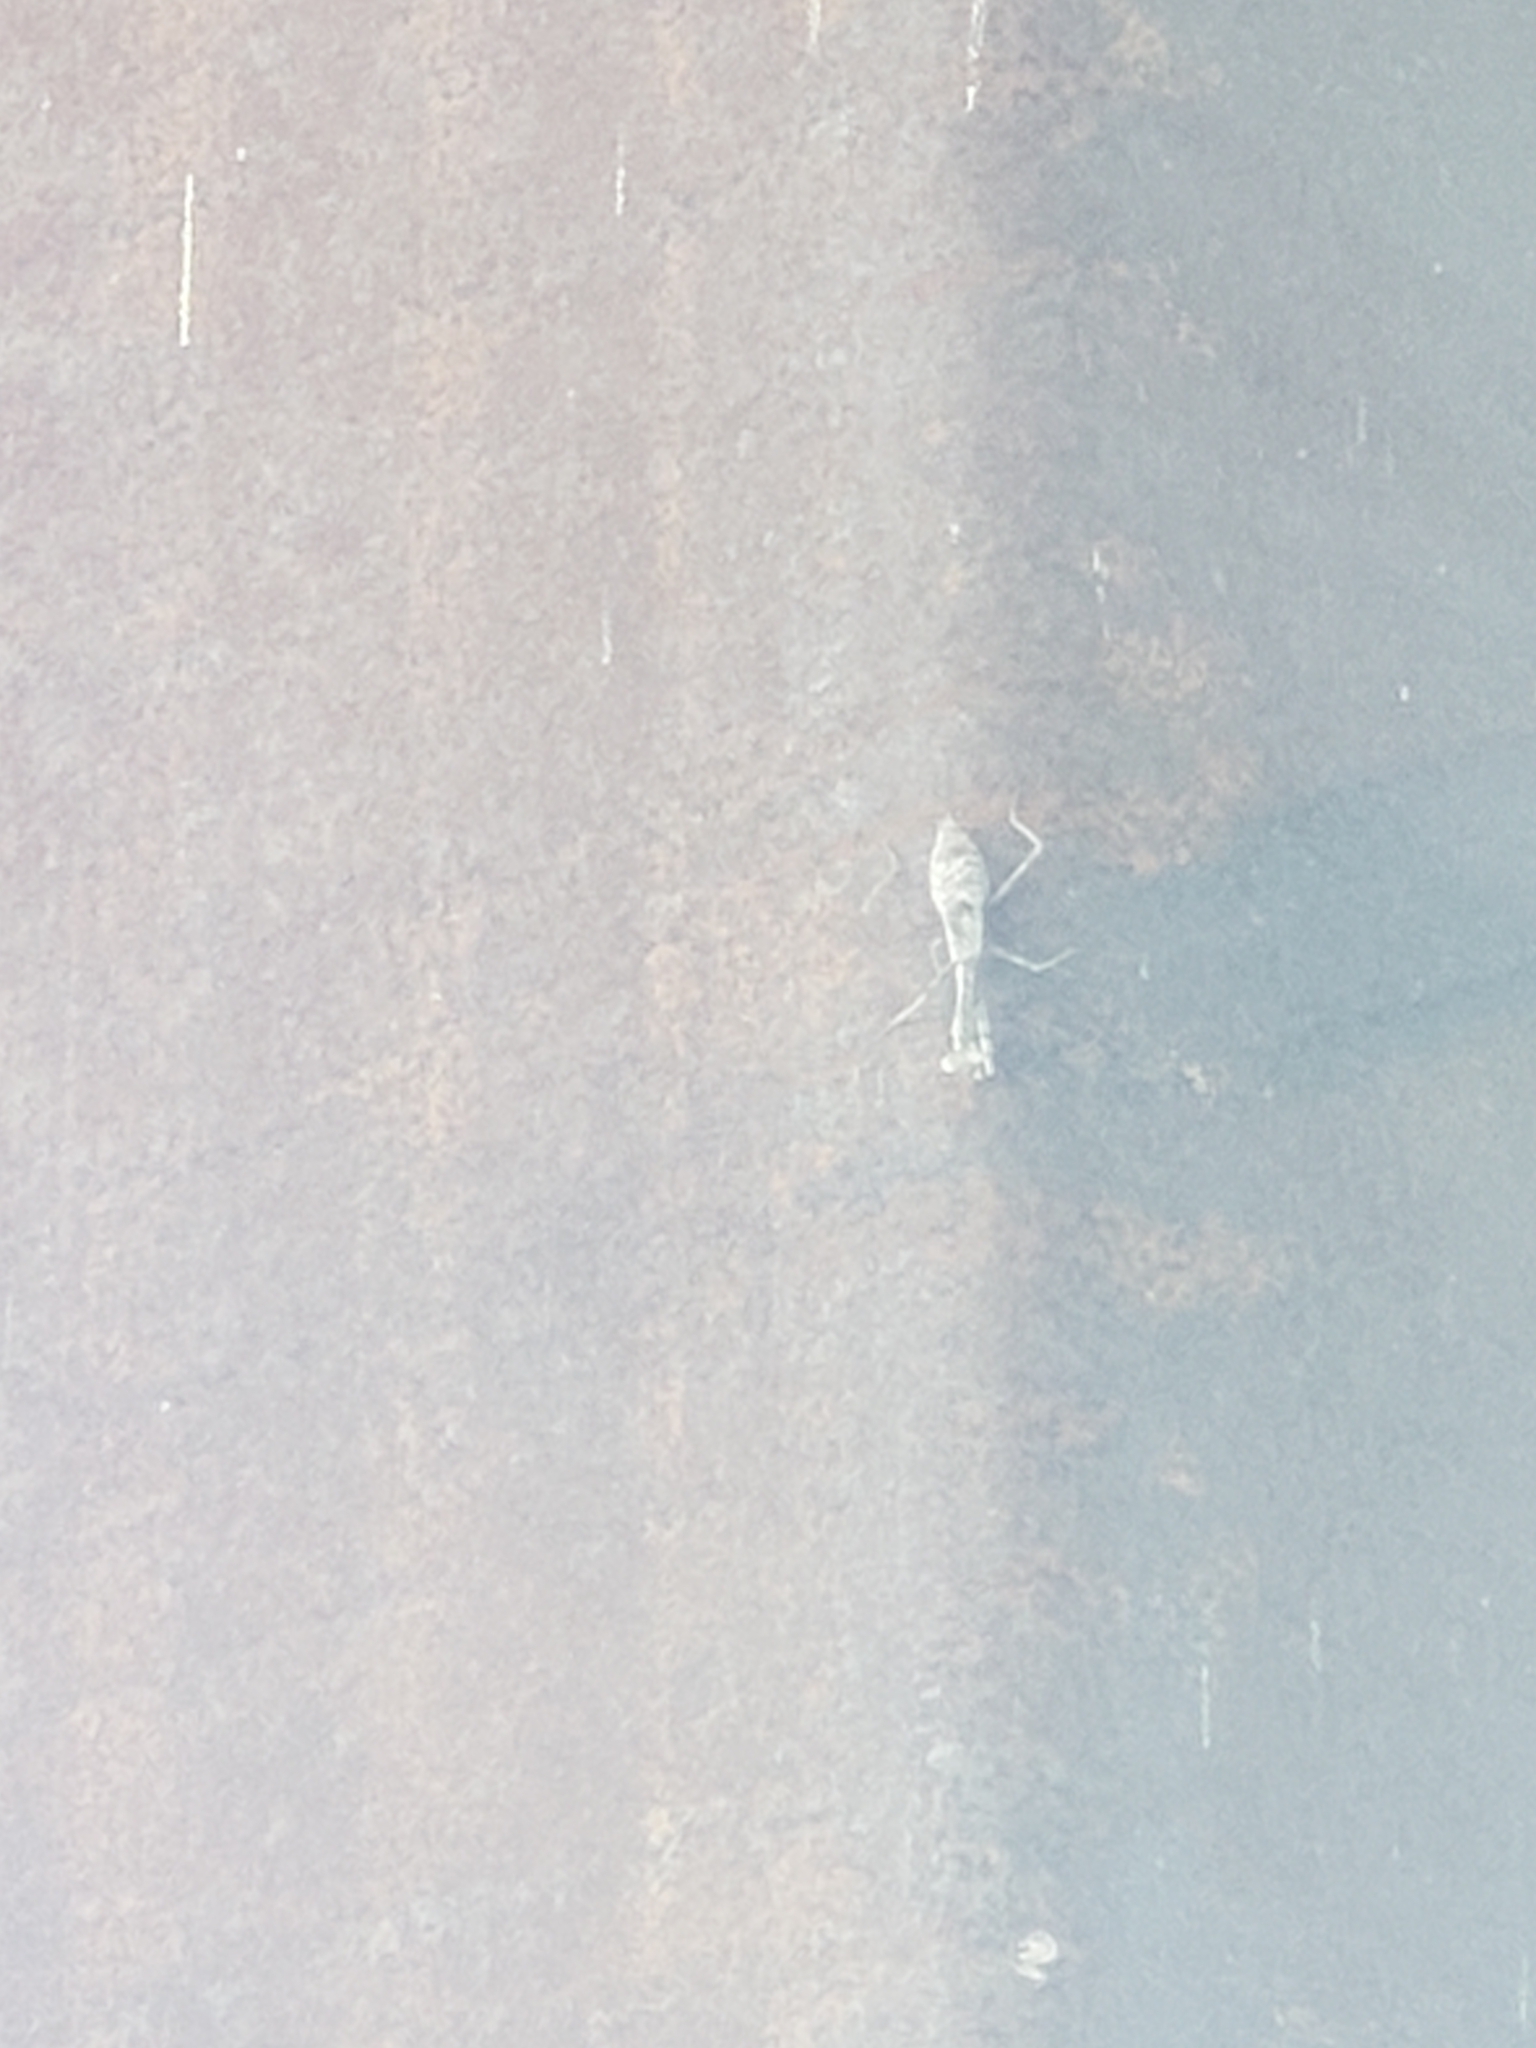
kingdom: Animalia
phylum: Arthropoda
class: Insecta
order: Mantodea
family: Mantidae
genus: Stagmomantis
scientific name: Stagmomantis carolina
